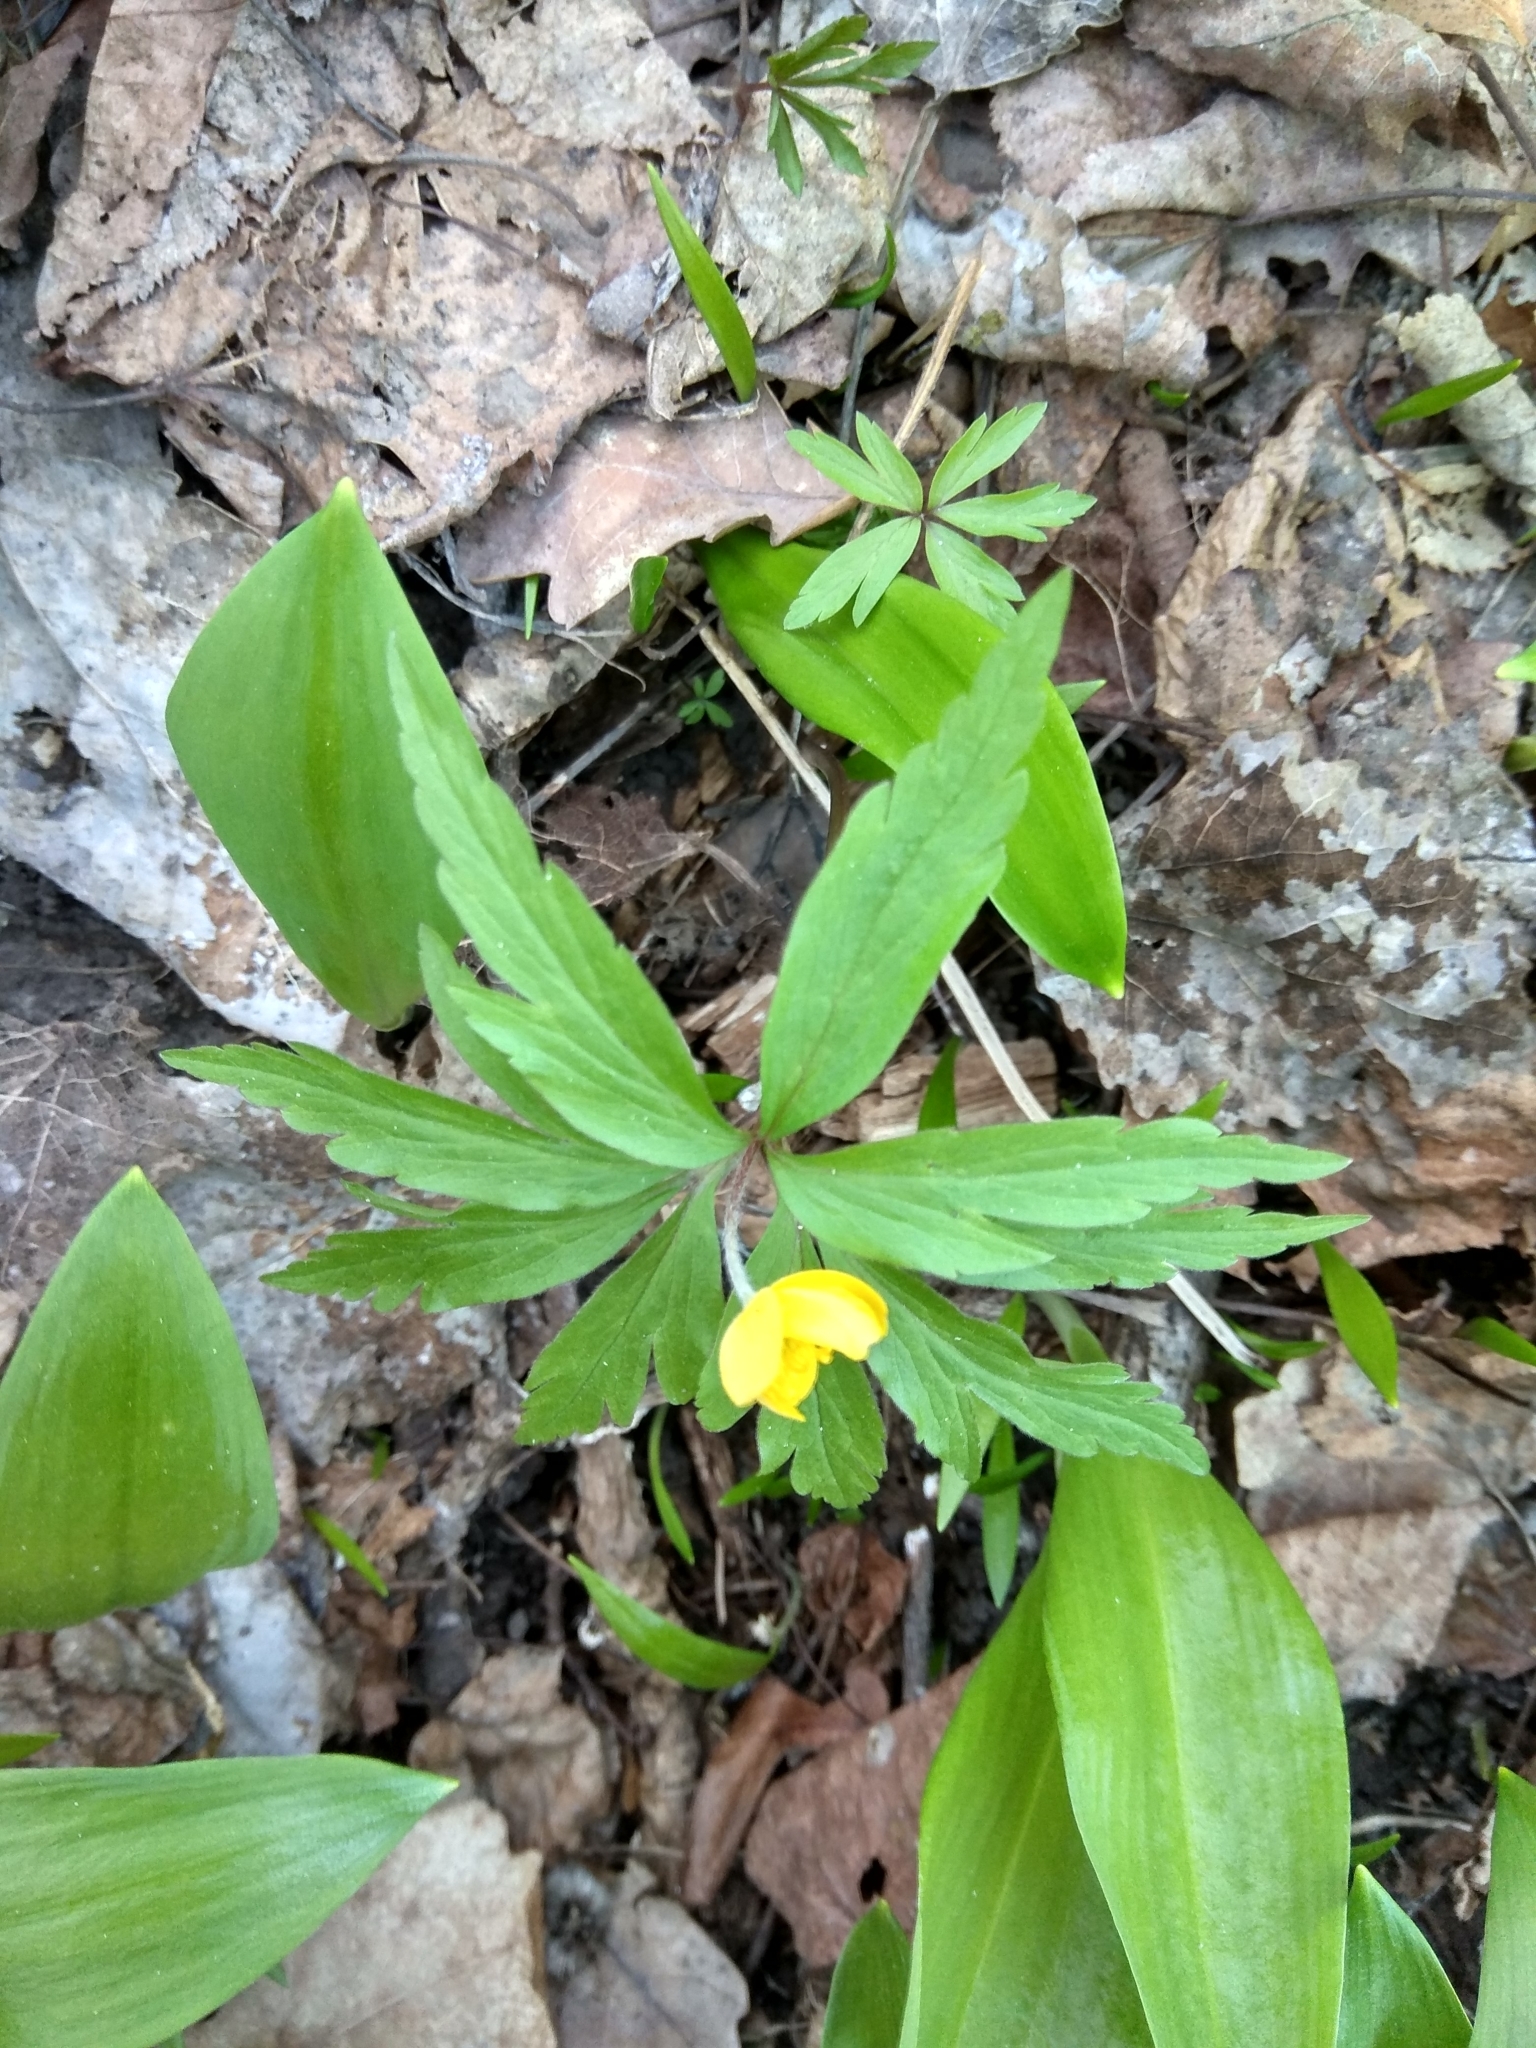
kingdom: Plantae
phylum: Tracheophyta
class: Magnoliopsida
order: Ranunculales
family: Ranunculaceae
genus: Anemone
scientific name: Anemone ranunculoides
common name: Yellow anemone
